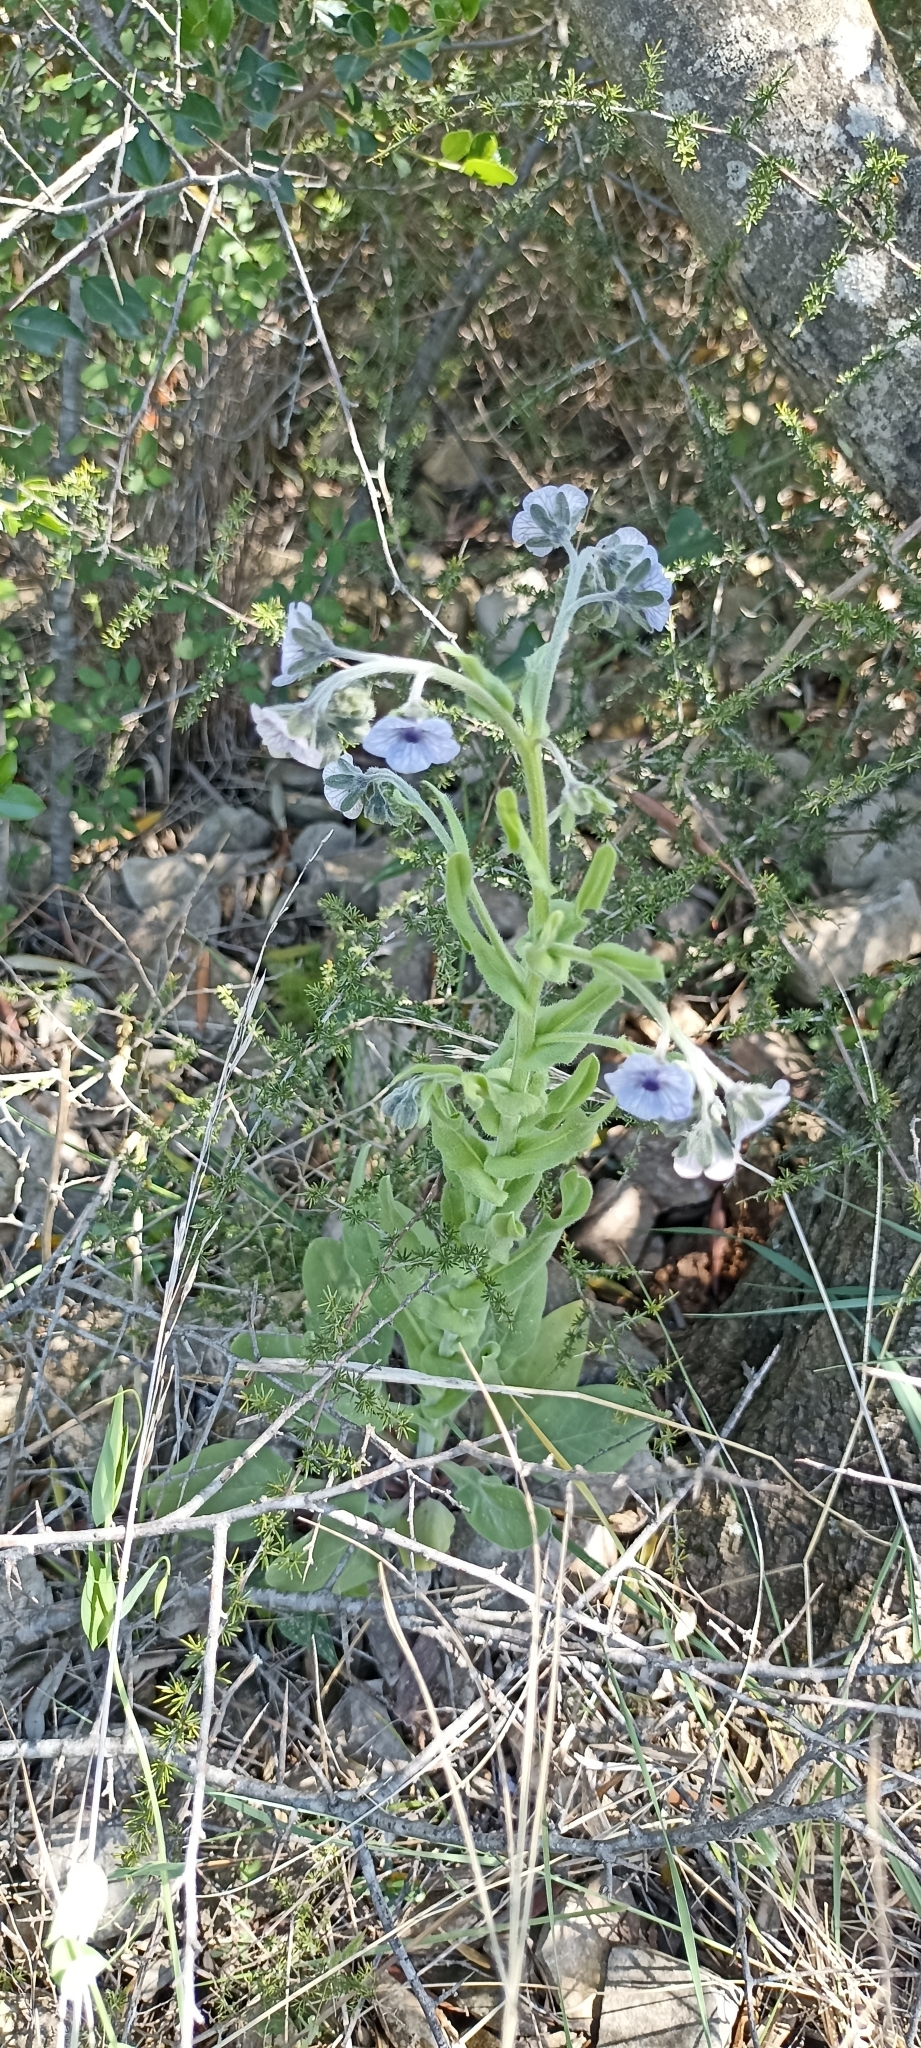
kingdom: Plantae
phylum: Tracheophyta
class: Magnoliopsida
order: Boraginales
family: Boraginaceae
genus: Cynoglossum
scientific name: Cynoglossum creticum
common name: Blue hound's tongue
